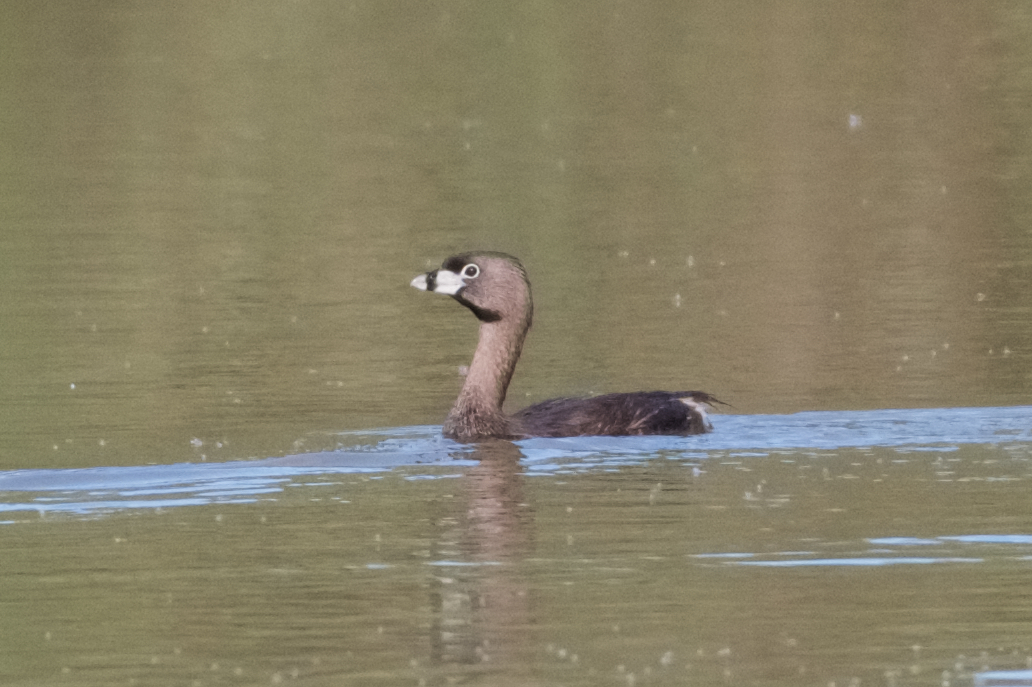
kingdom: Animalia
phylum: Chordata
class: Aves
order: Podicipediformes
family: Podicipedidae
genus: Podilymbus
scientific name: Podilymbus podiceps
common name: Pied-billed grebe
